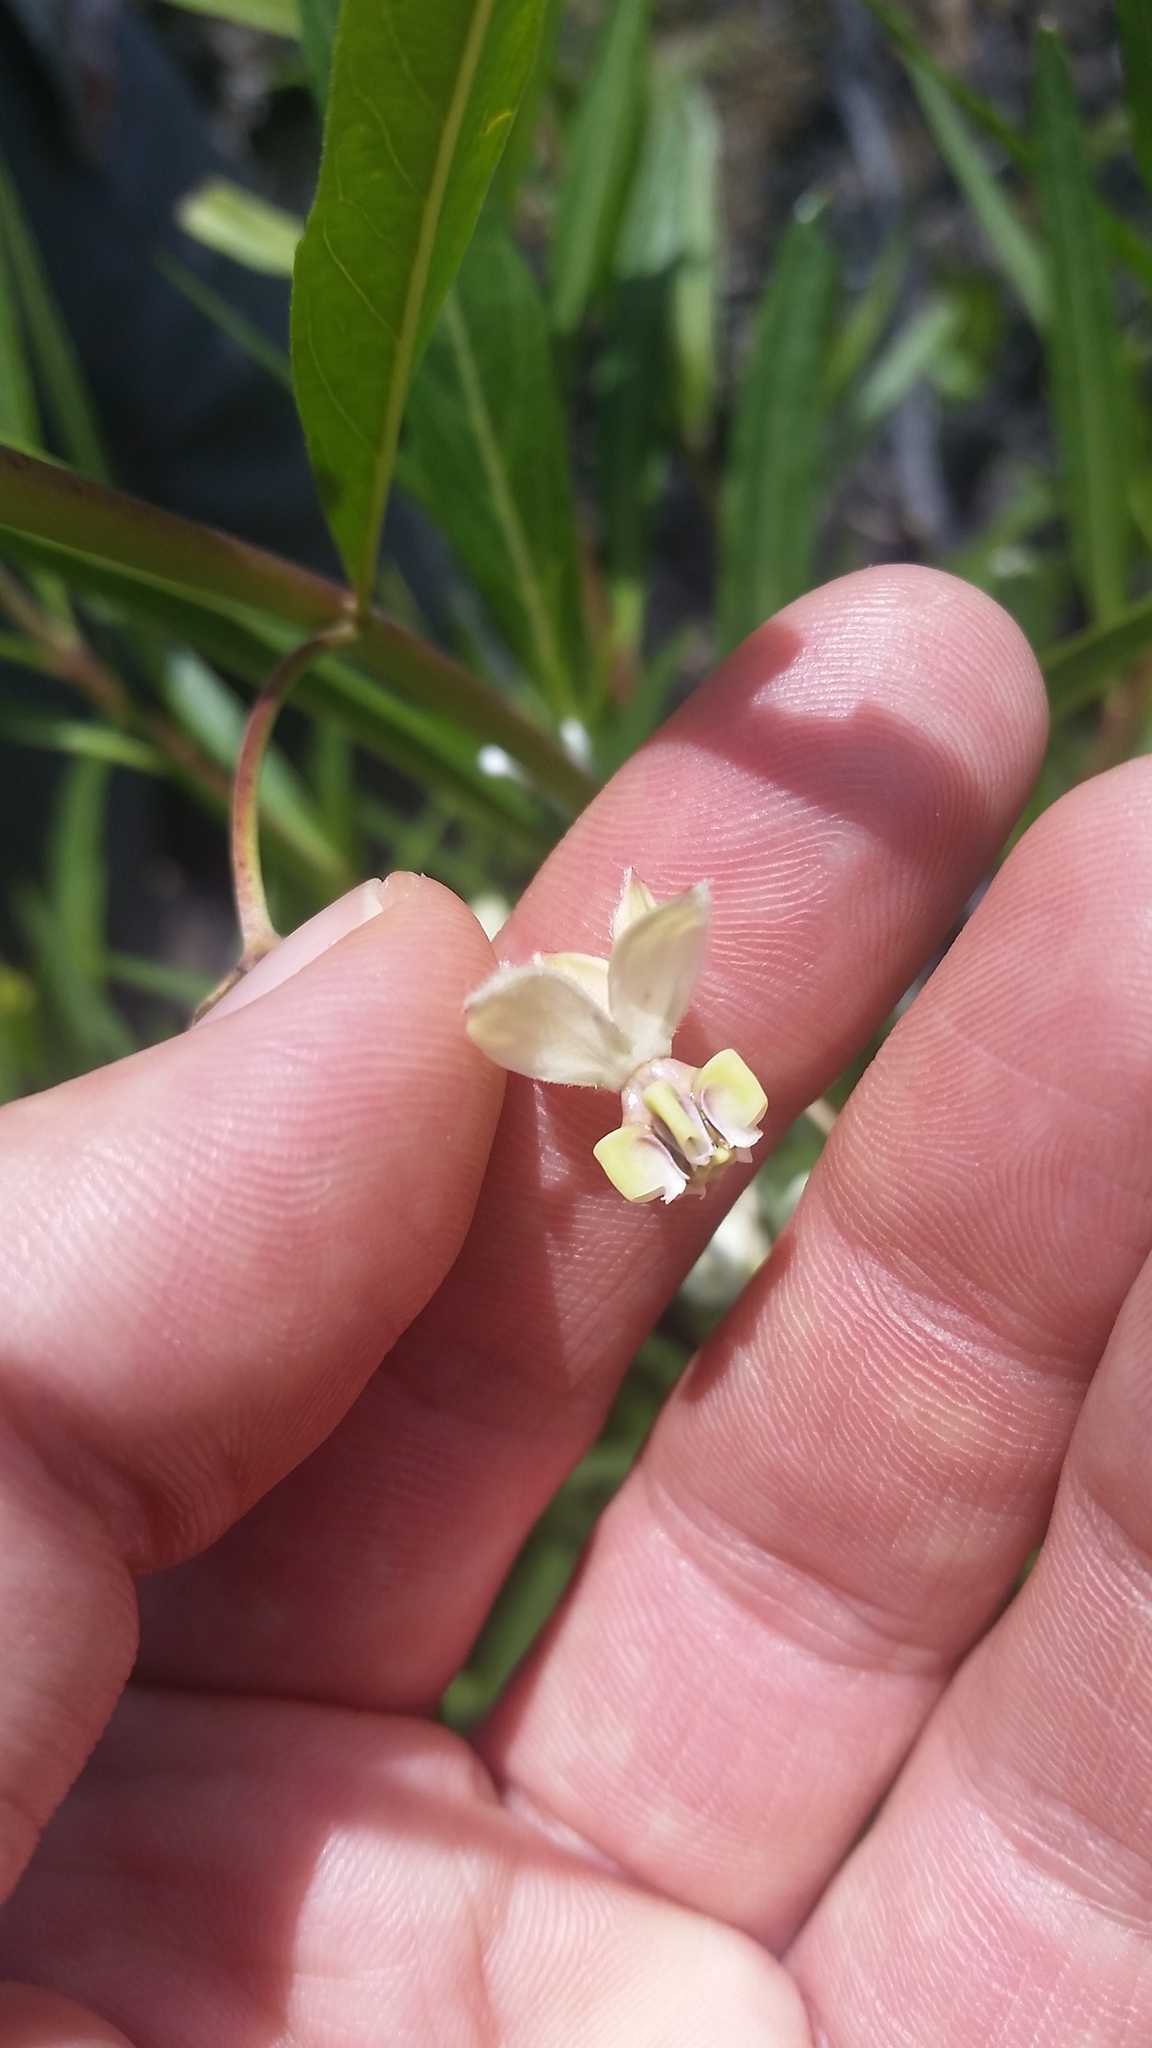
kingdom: Plantae
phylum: Tracheophyta
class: Magnoliopsida
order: Gentianales
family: Apocynaceae
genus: Gomphocarpus
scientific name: Gomphocarpus physocarpus
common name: Balloon cotton bush
